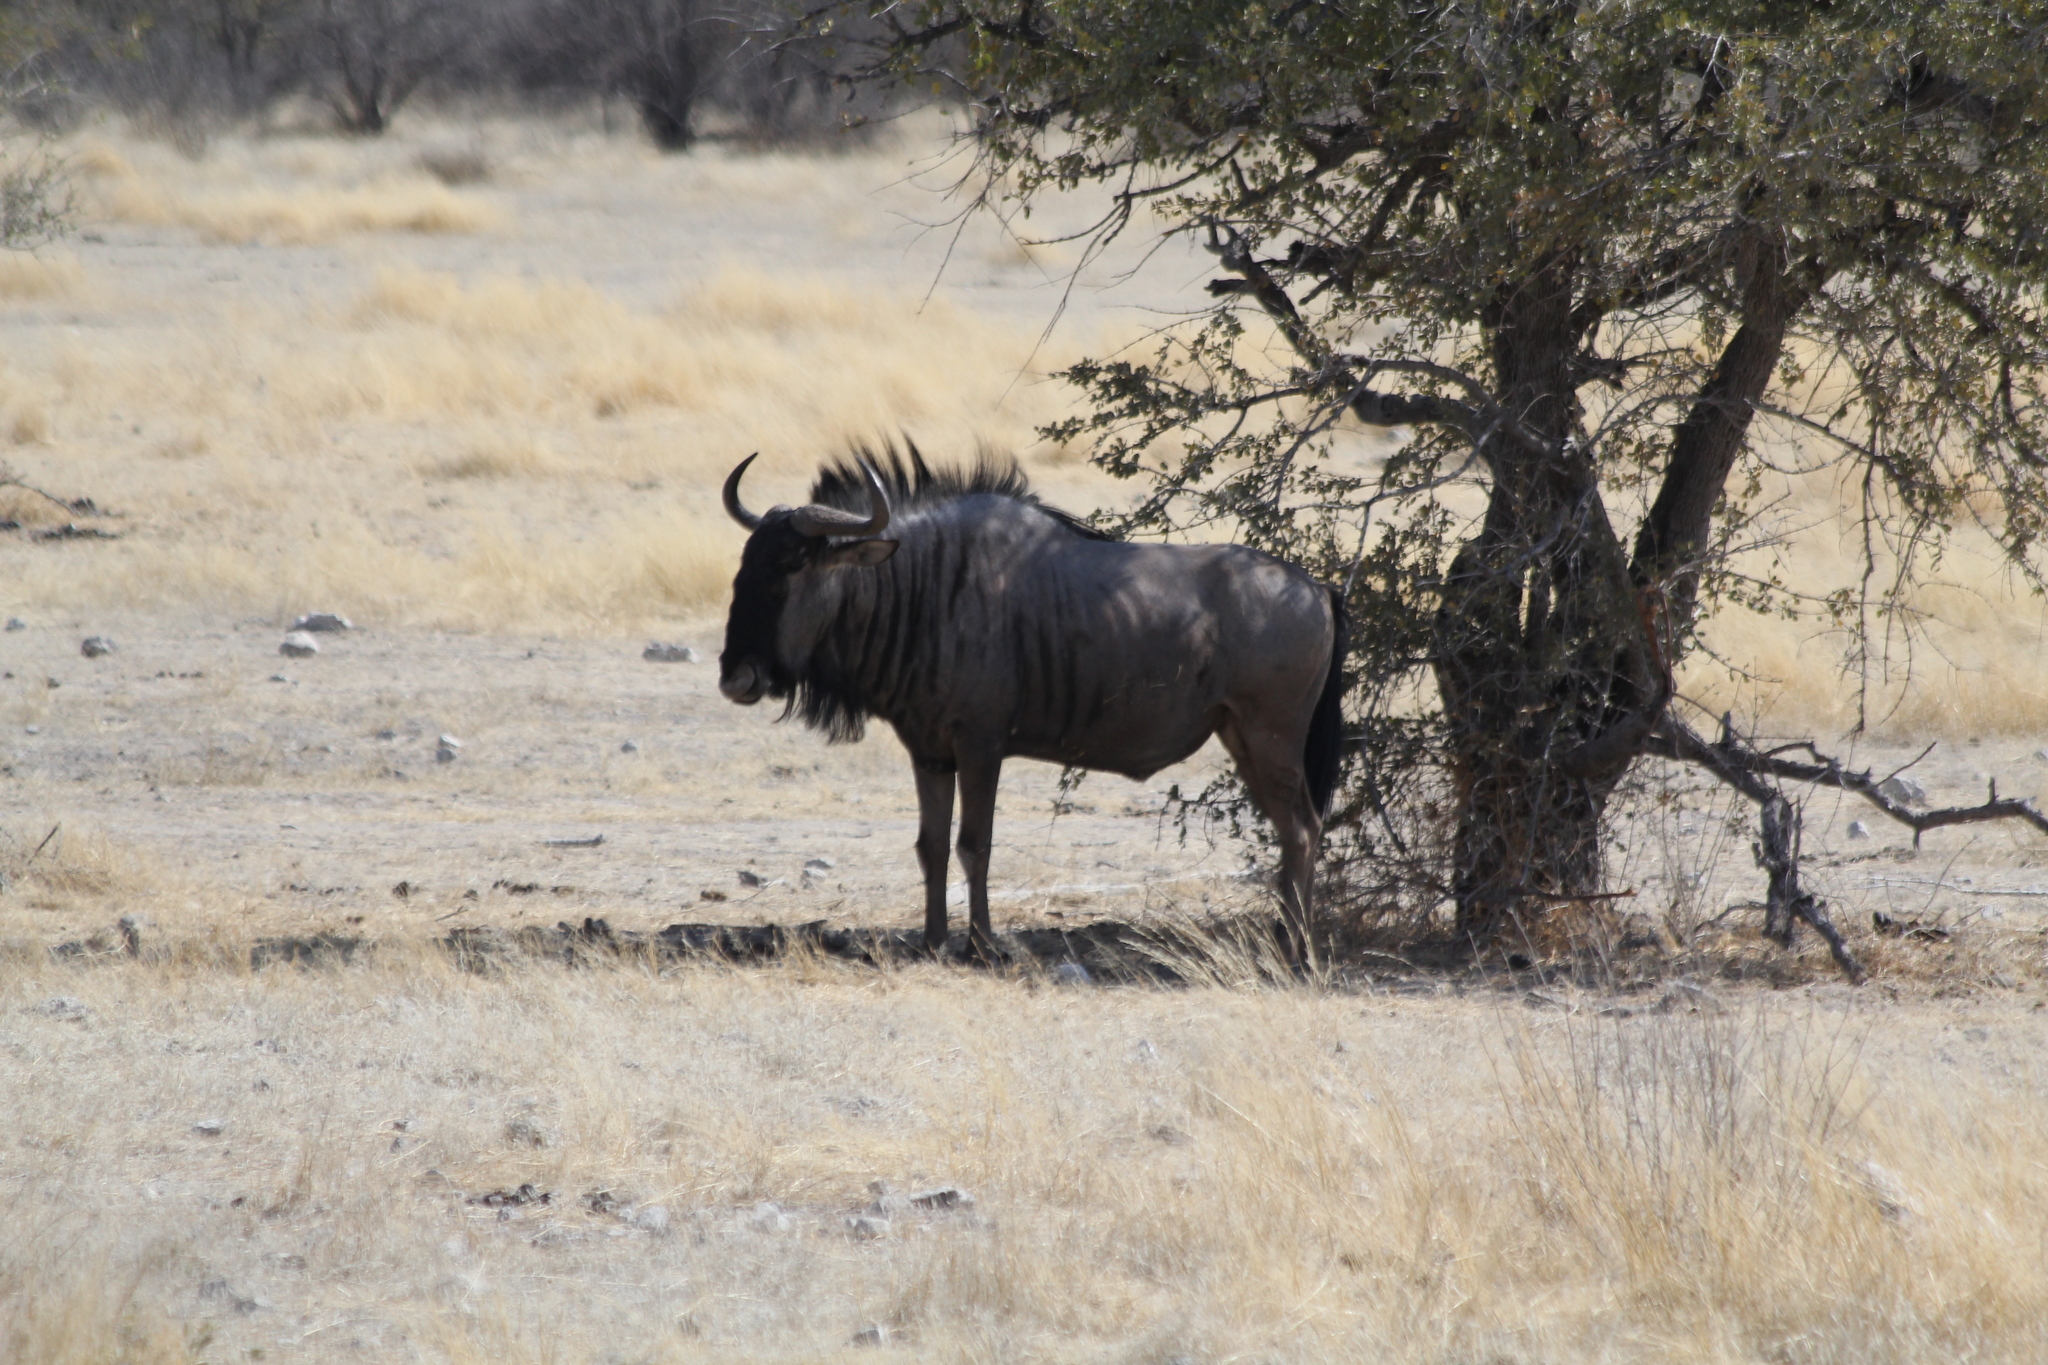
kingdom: Animalia
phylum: Chordata
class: Mammalia
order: Artiodactyla
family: Bovidae
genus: Connochaetes
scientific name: Connochaetes taurinus
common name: Blue wildebeest
